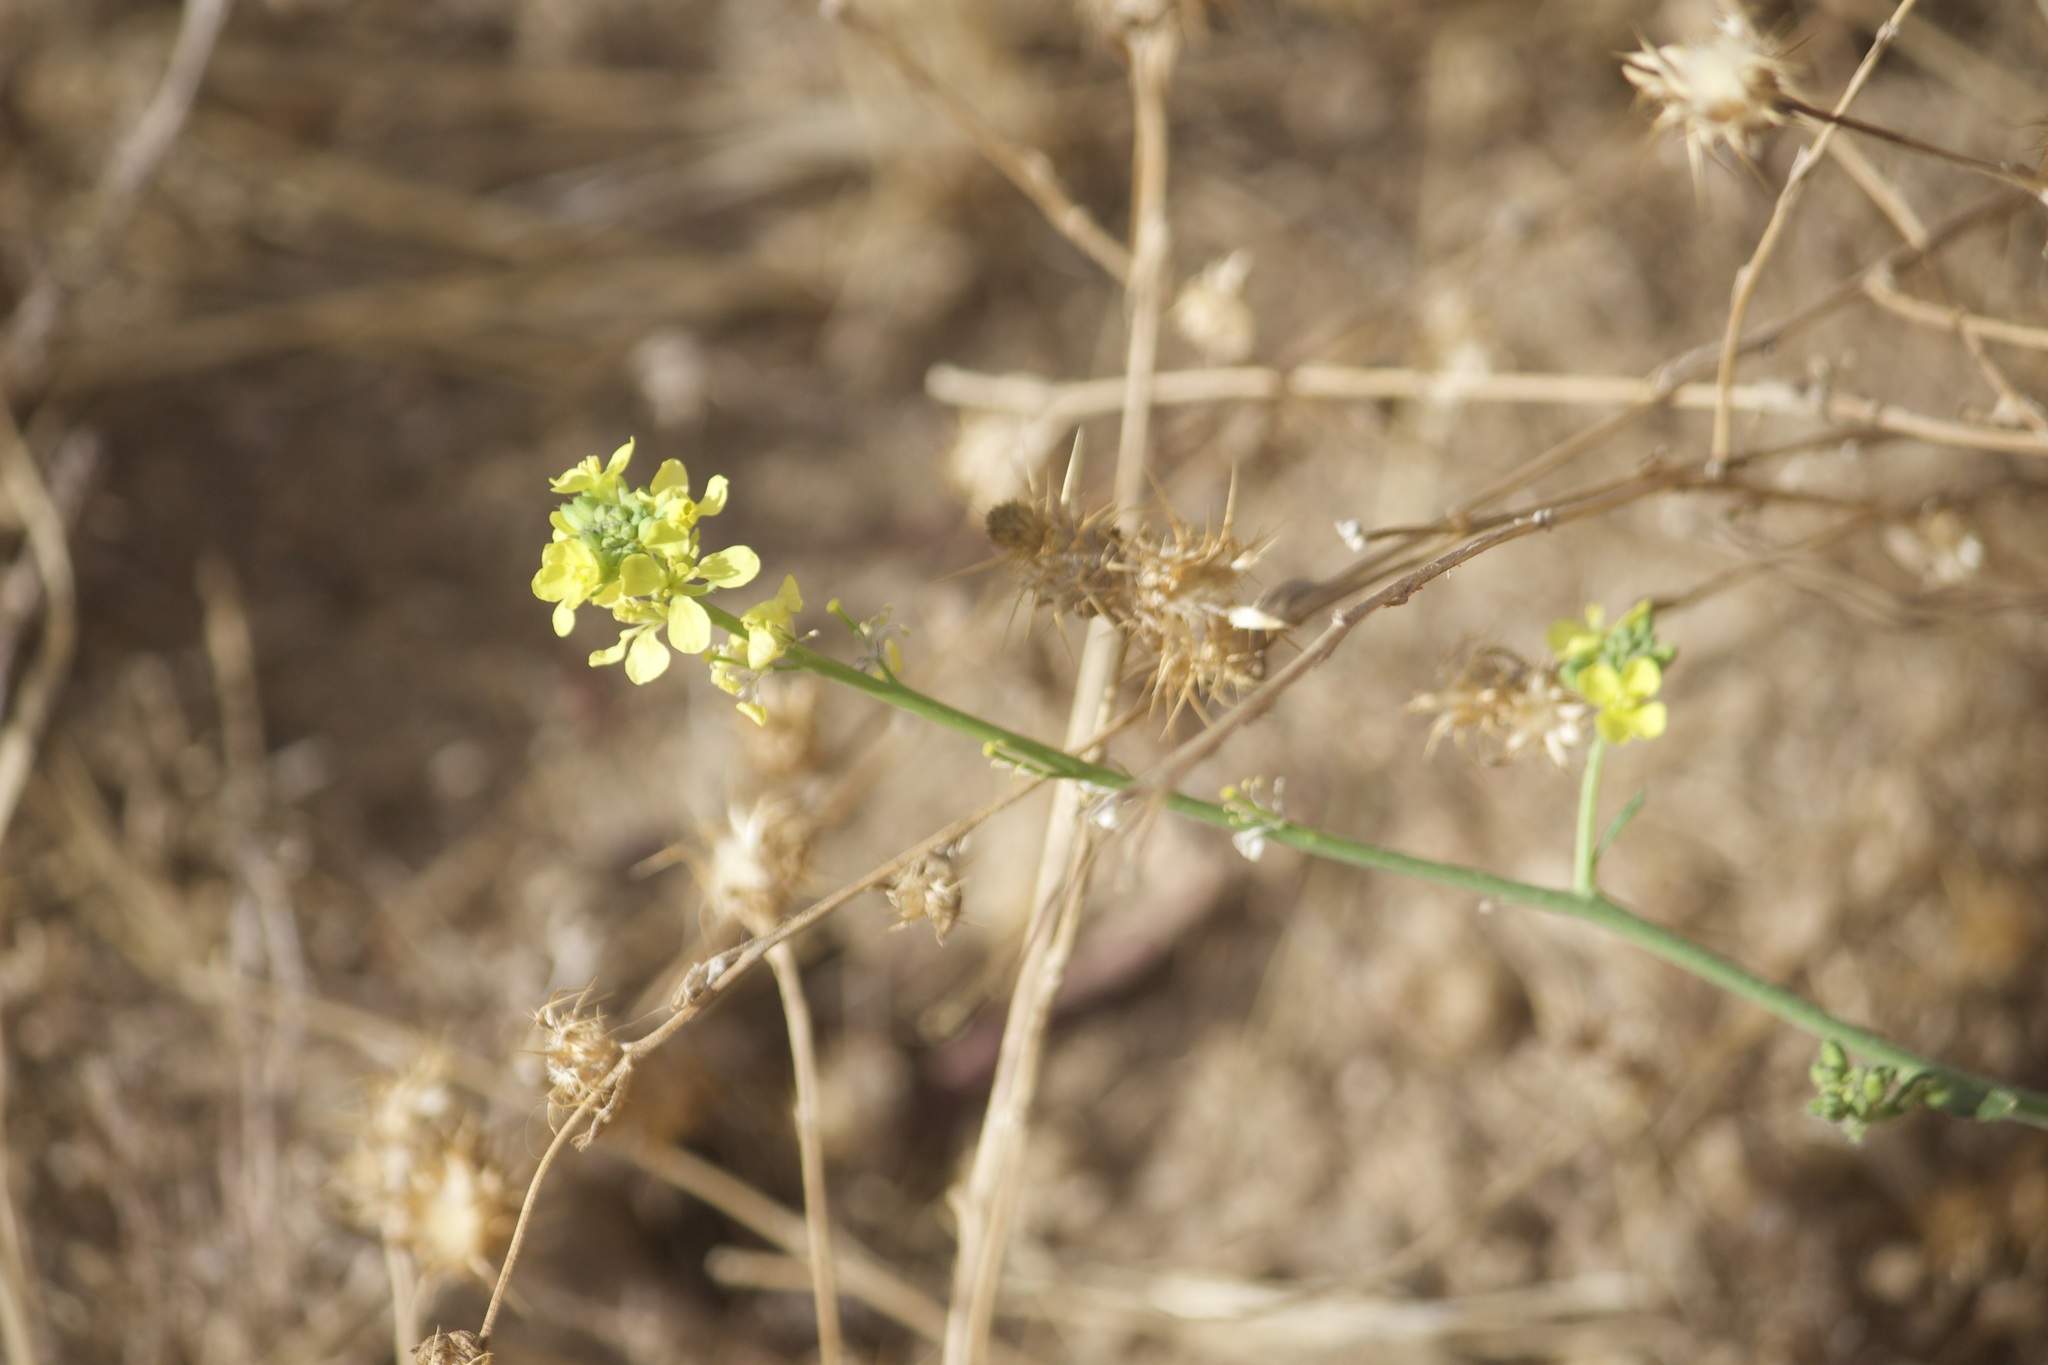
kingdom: Plantae
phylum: Tracheophyta
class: Magnoliopsida
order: Brassicales
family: Brassicaceae
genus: Brassica
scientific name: Brassica nigra
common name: Black mustard
